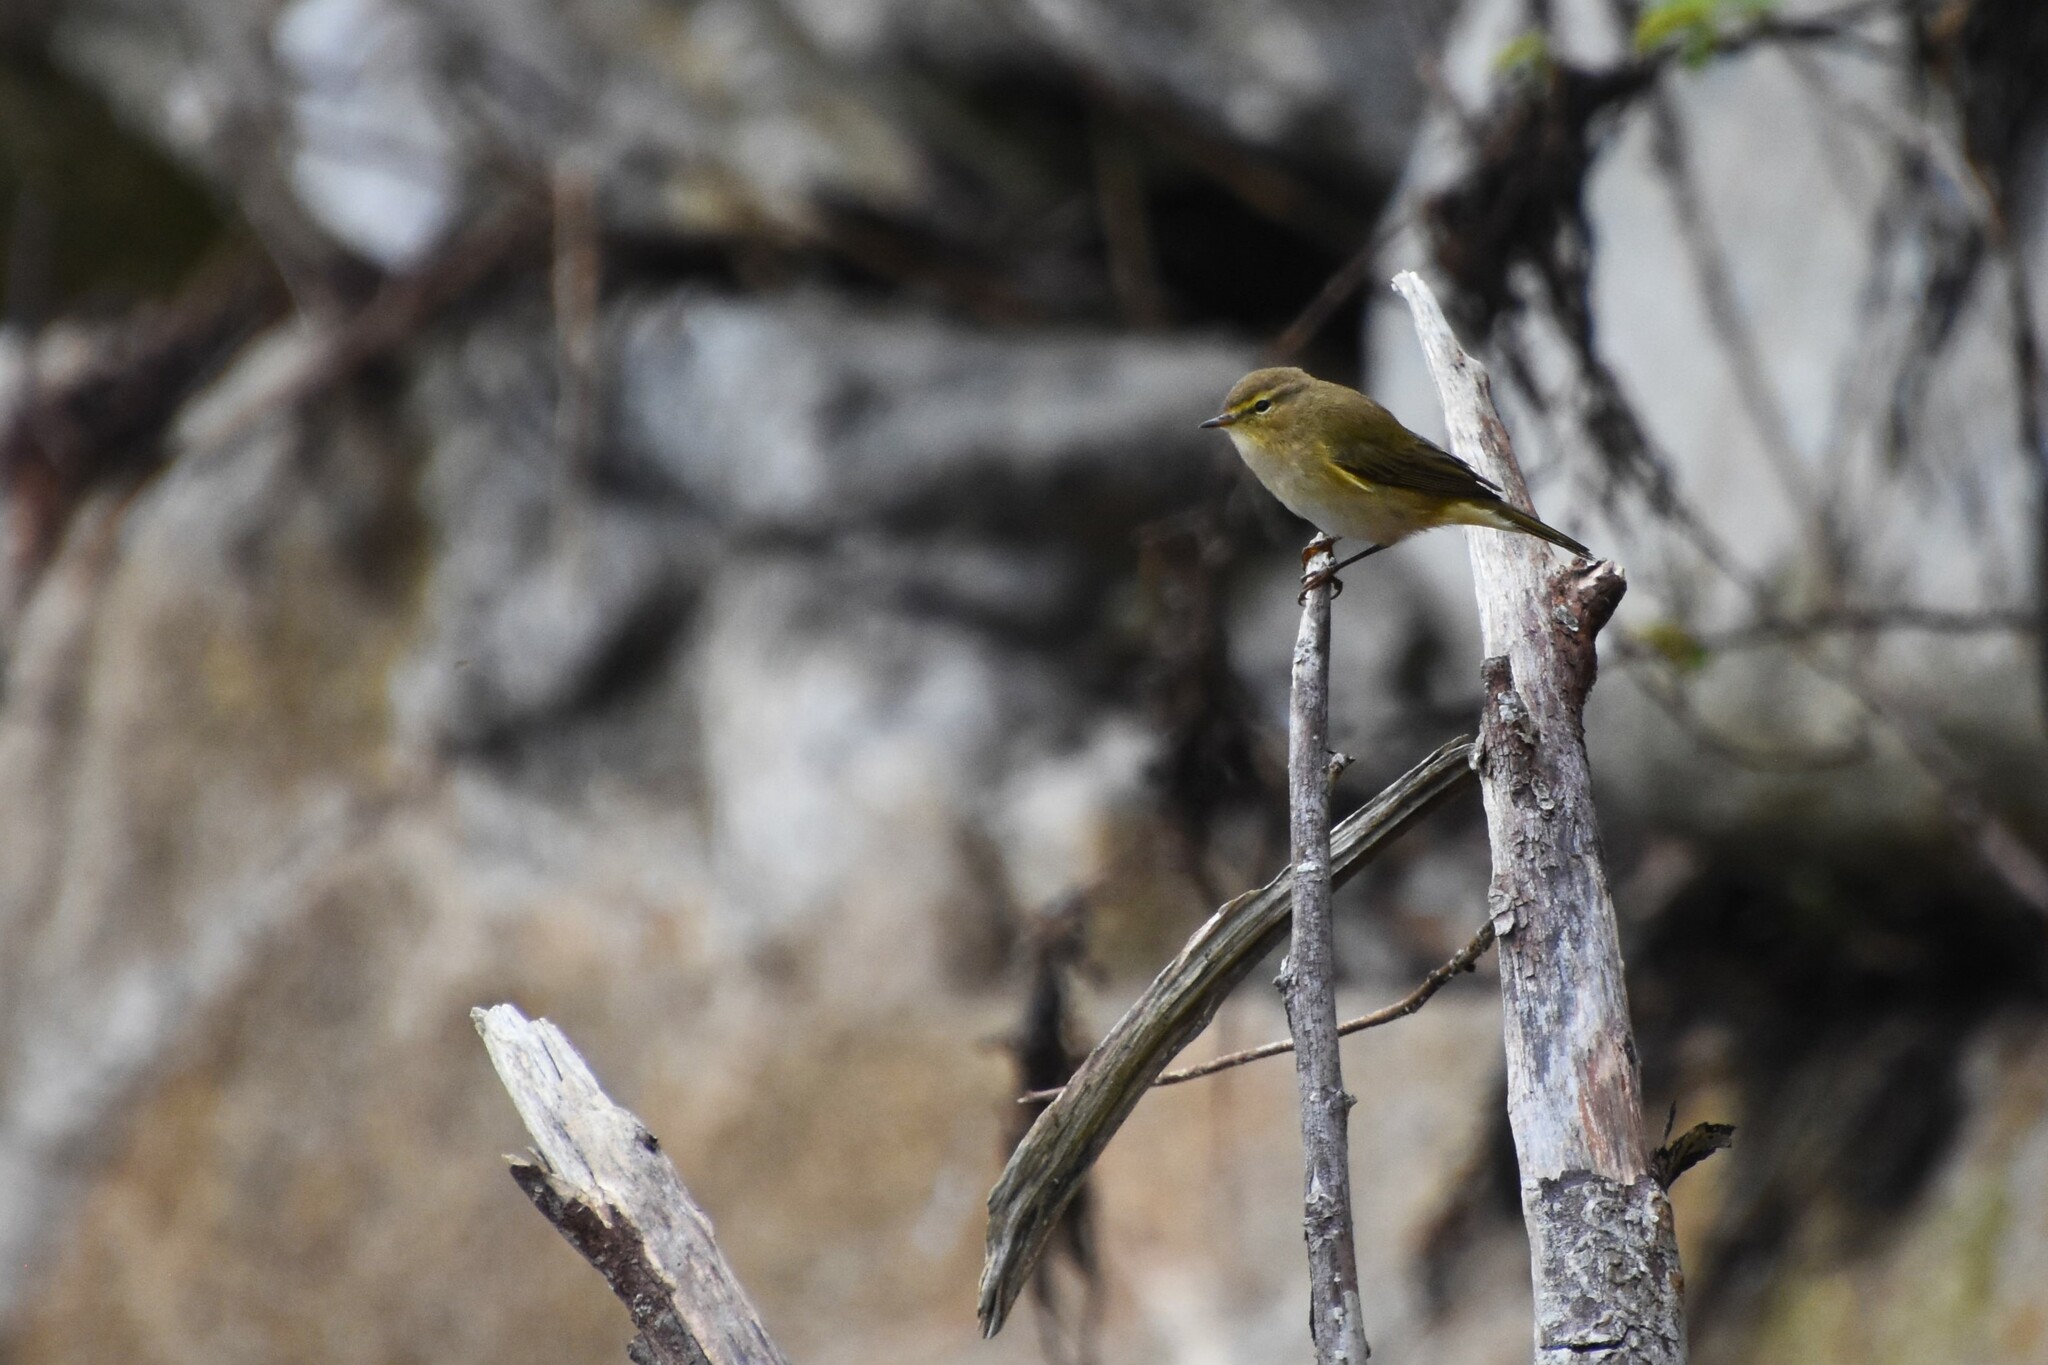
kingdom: Animalia
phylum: Chordata
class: Aves
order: Passeriformes
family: Phylloscopidae
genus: Phylloscopus
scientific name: Phylloscopus collybita
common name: Common chiffchaff
